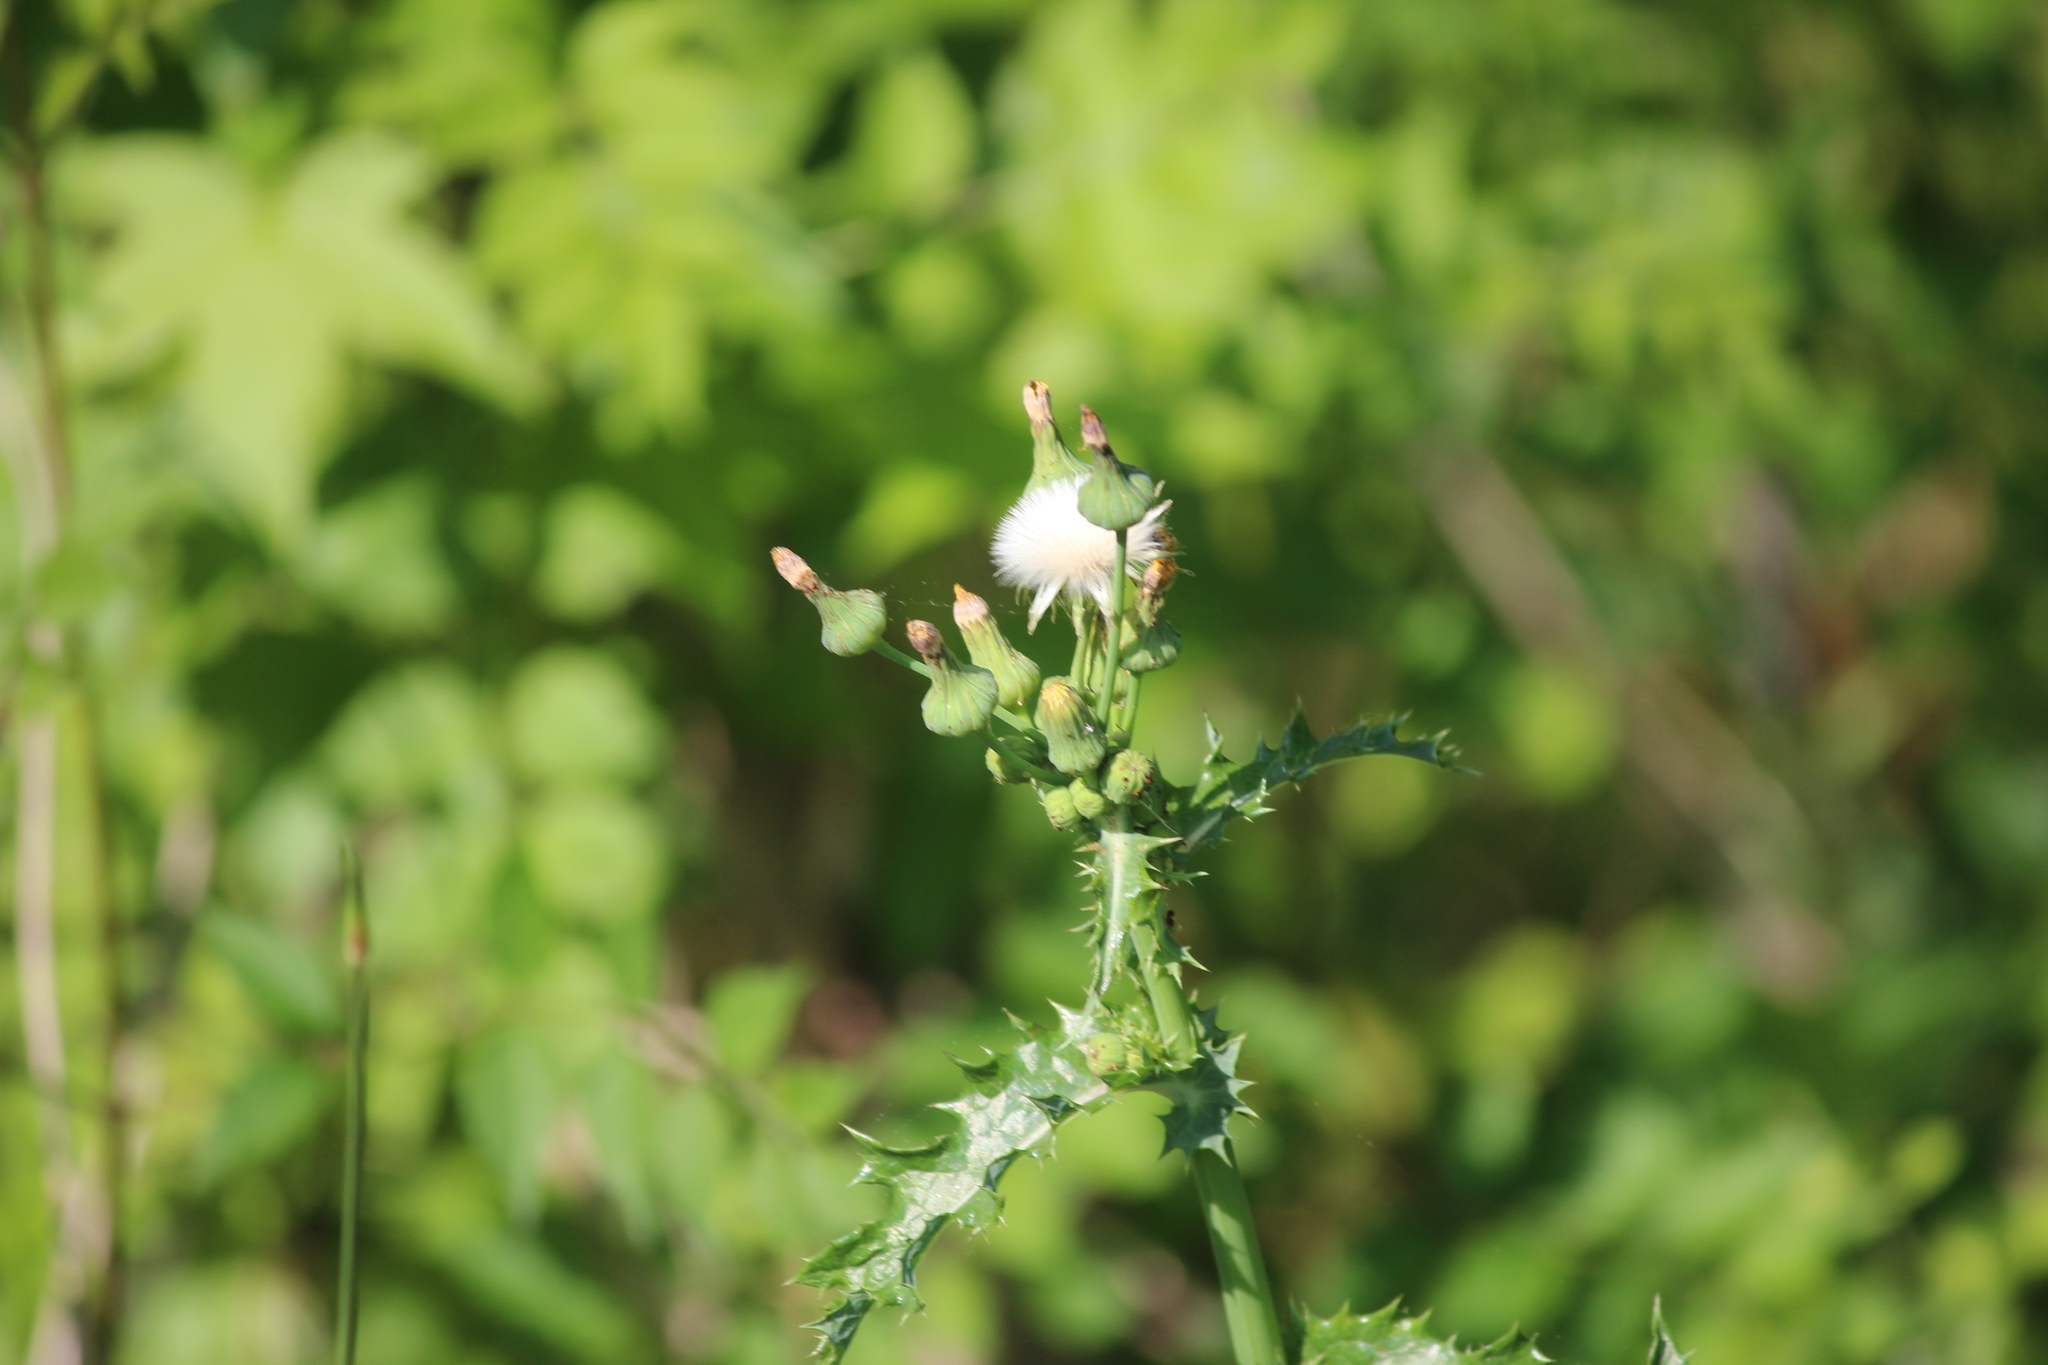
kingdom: Plantae
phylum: Tracheophyta
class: Magnoliopsida
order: Asterales
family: Asteraceae
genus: Sonchus
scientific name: Sonchus asper
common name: Prickly sow-thistle
